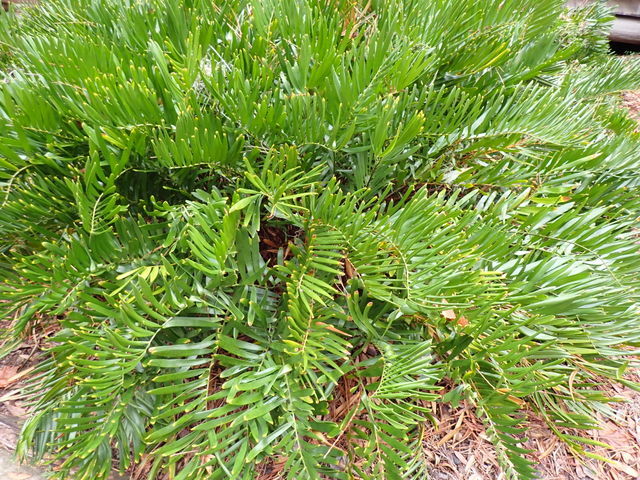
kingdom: Plantae
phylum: Tracheophyta
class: Cycadopsida
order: Cycadales
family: Zamiaceae
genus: Zamia
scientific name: Zamia integrifolia
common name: Florida arrowroot
